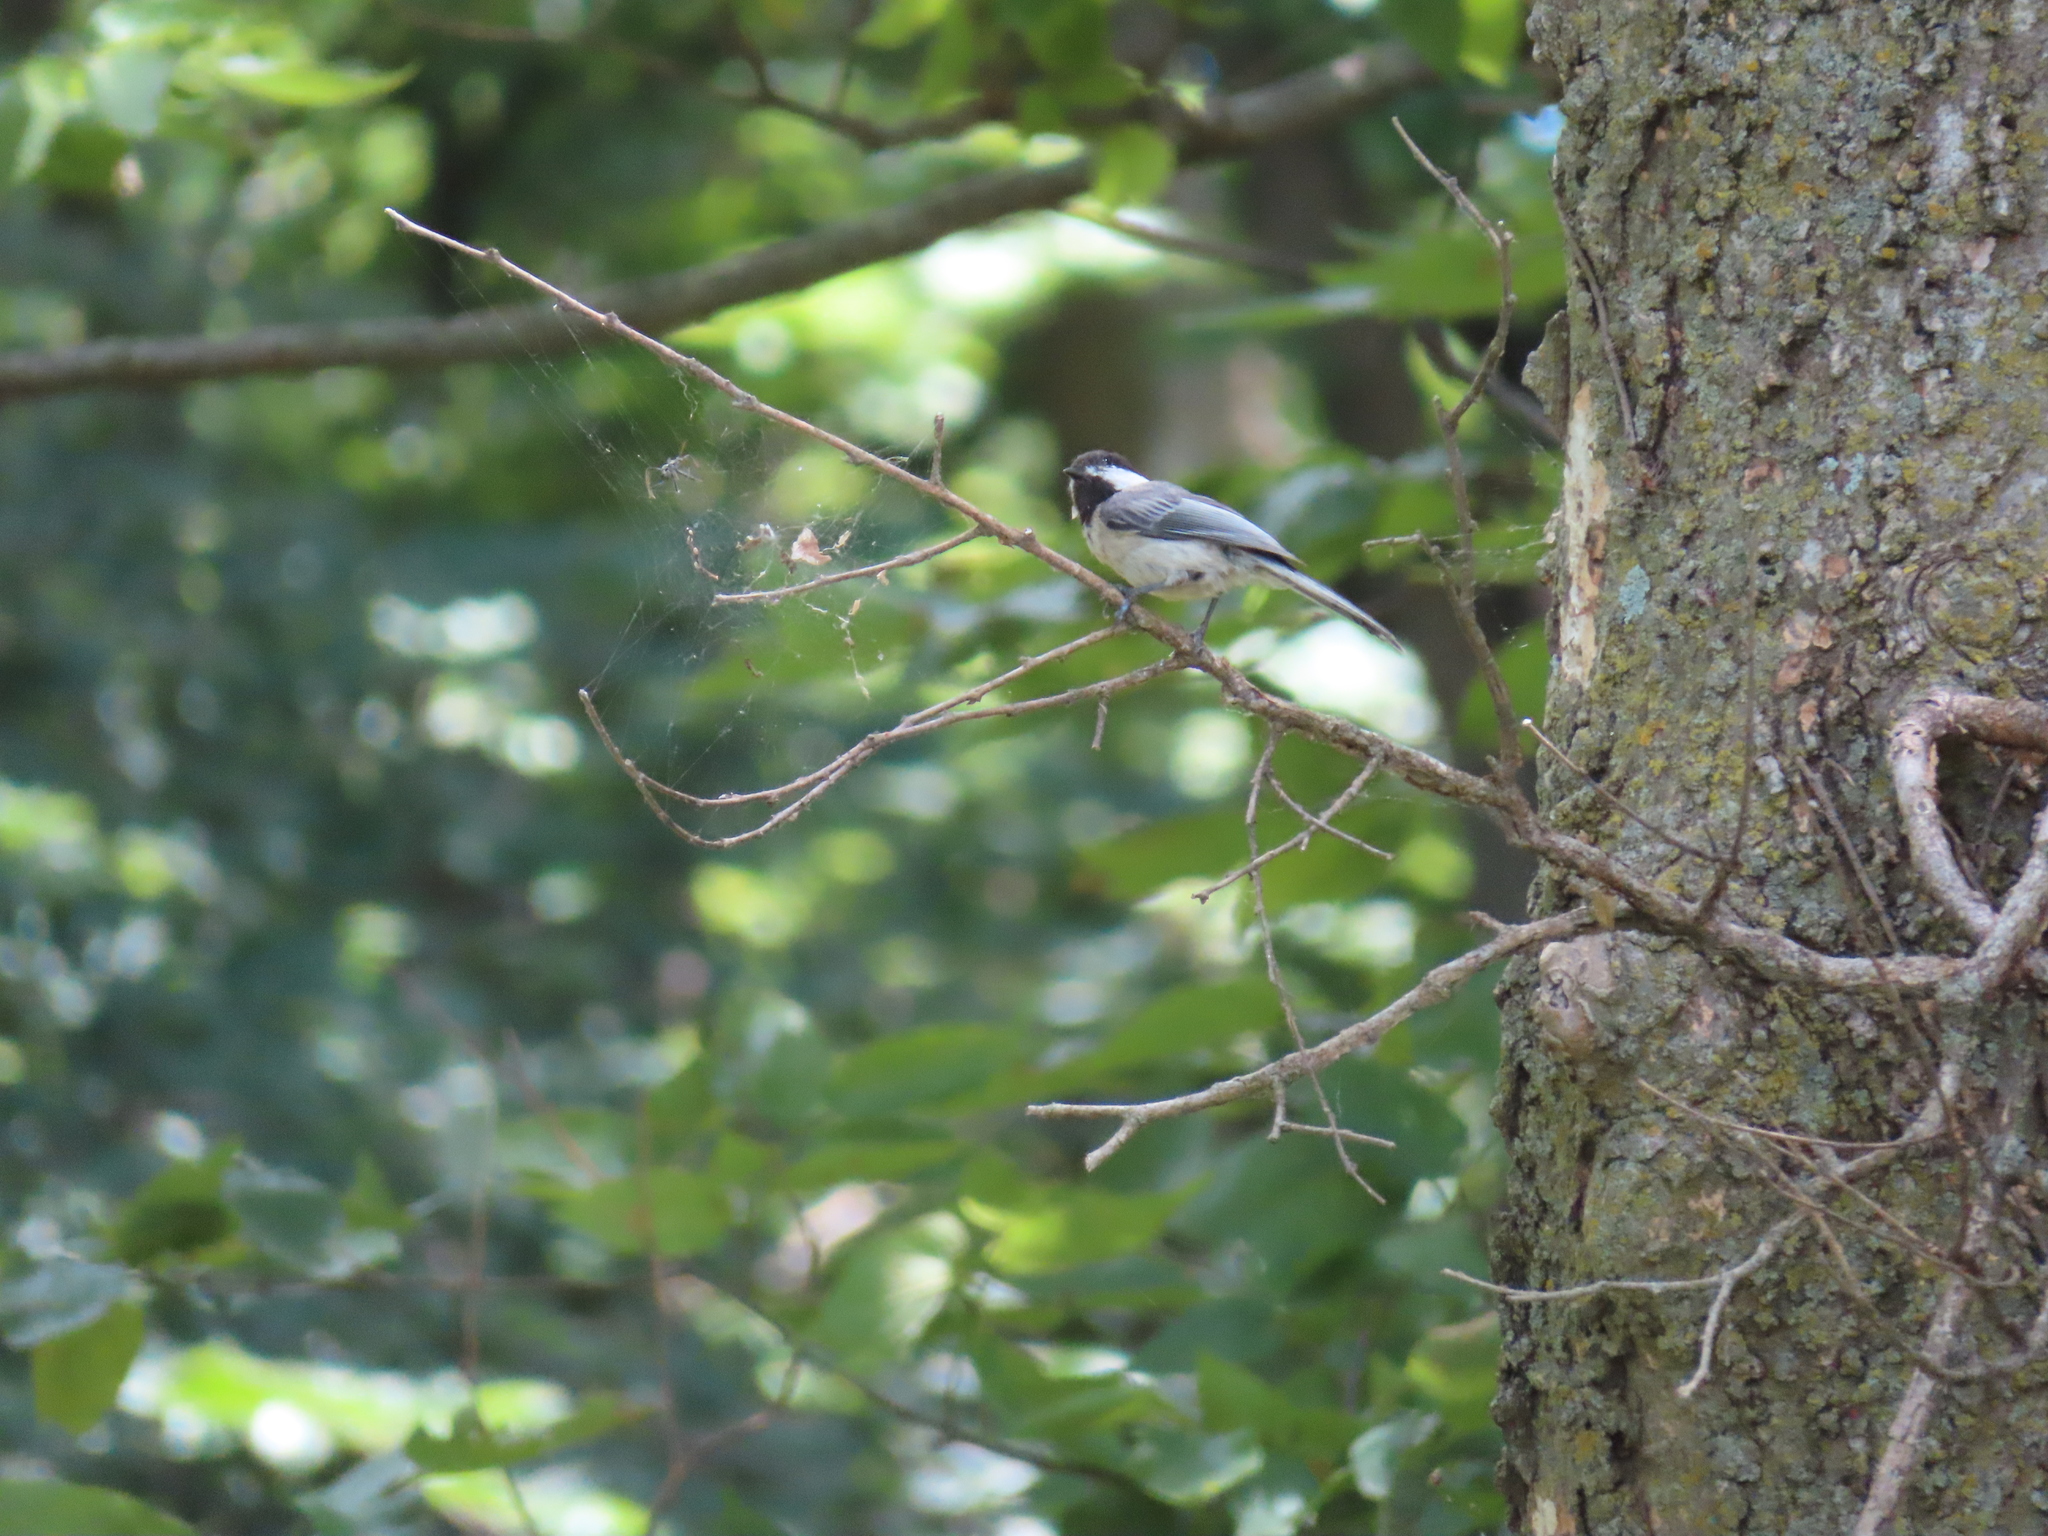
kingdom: Animalia
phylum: Chordata
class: Aves
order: Passeriformes
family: Paridae
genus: Poecile
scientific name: Poecile atricapillus
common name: Black-capped chickadee
